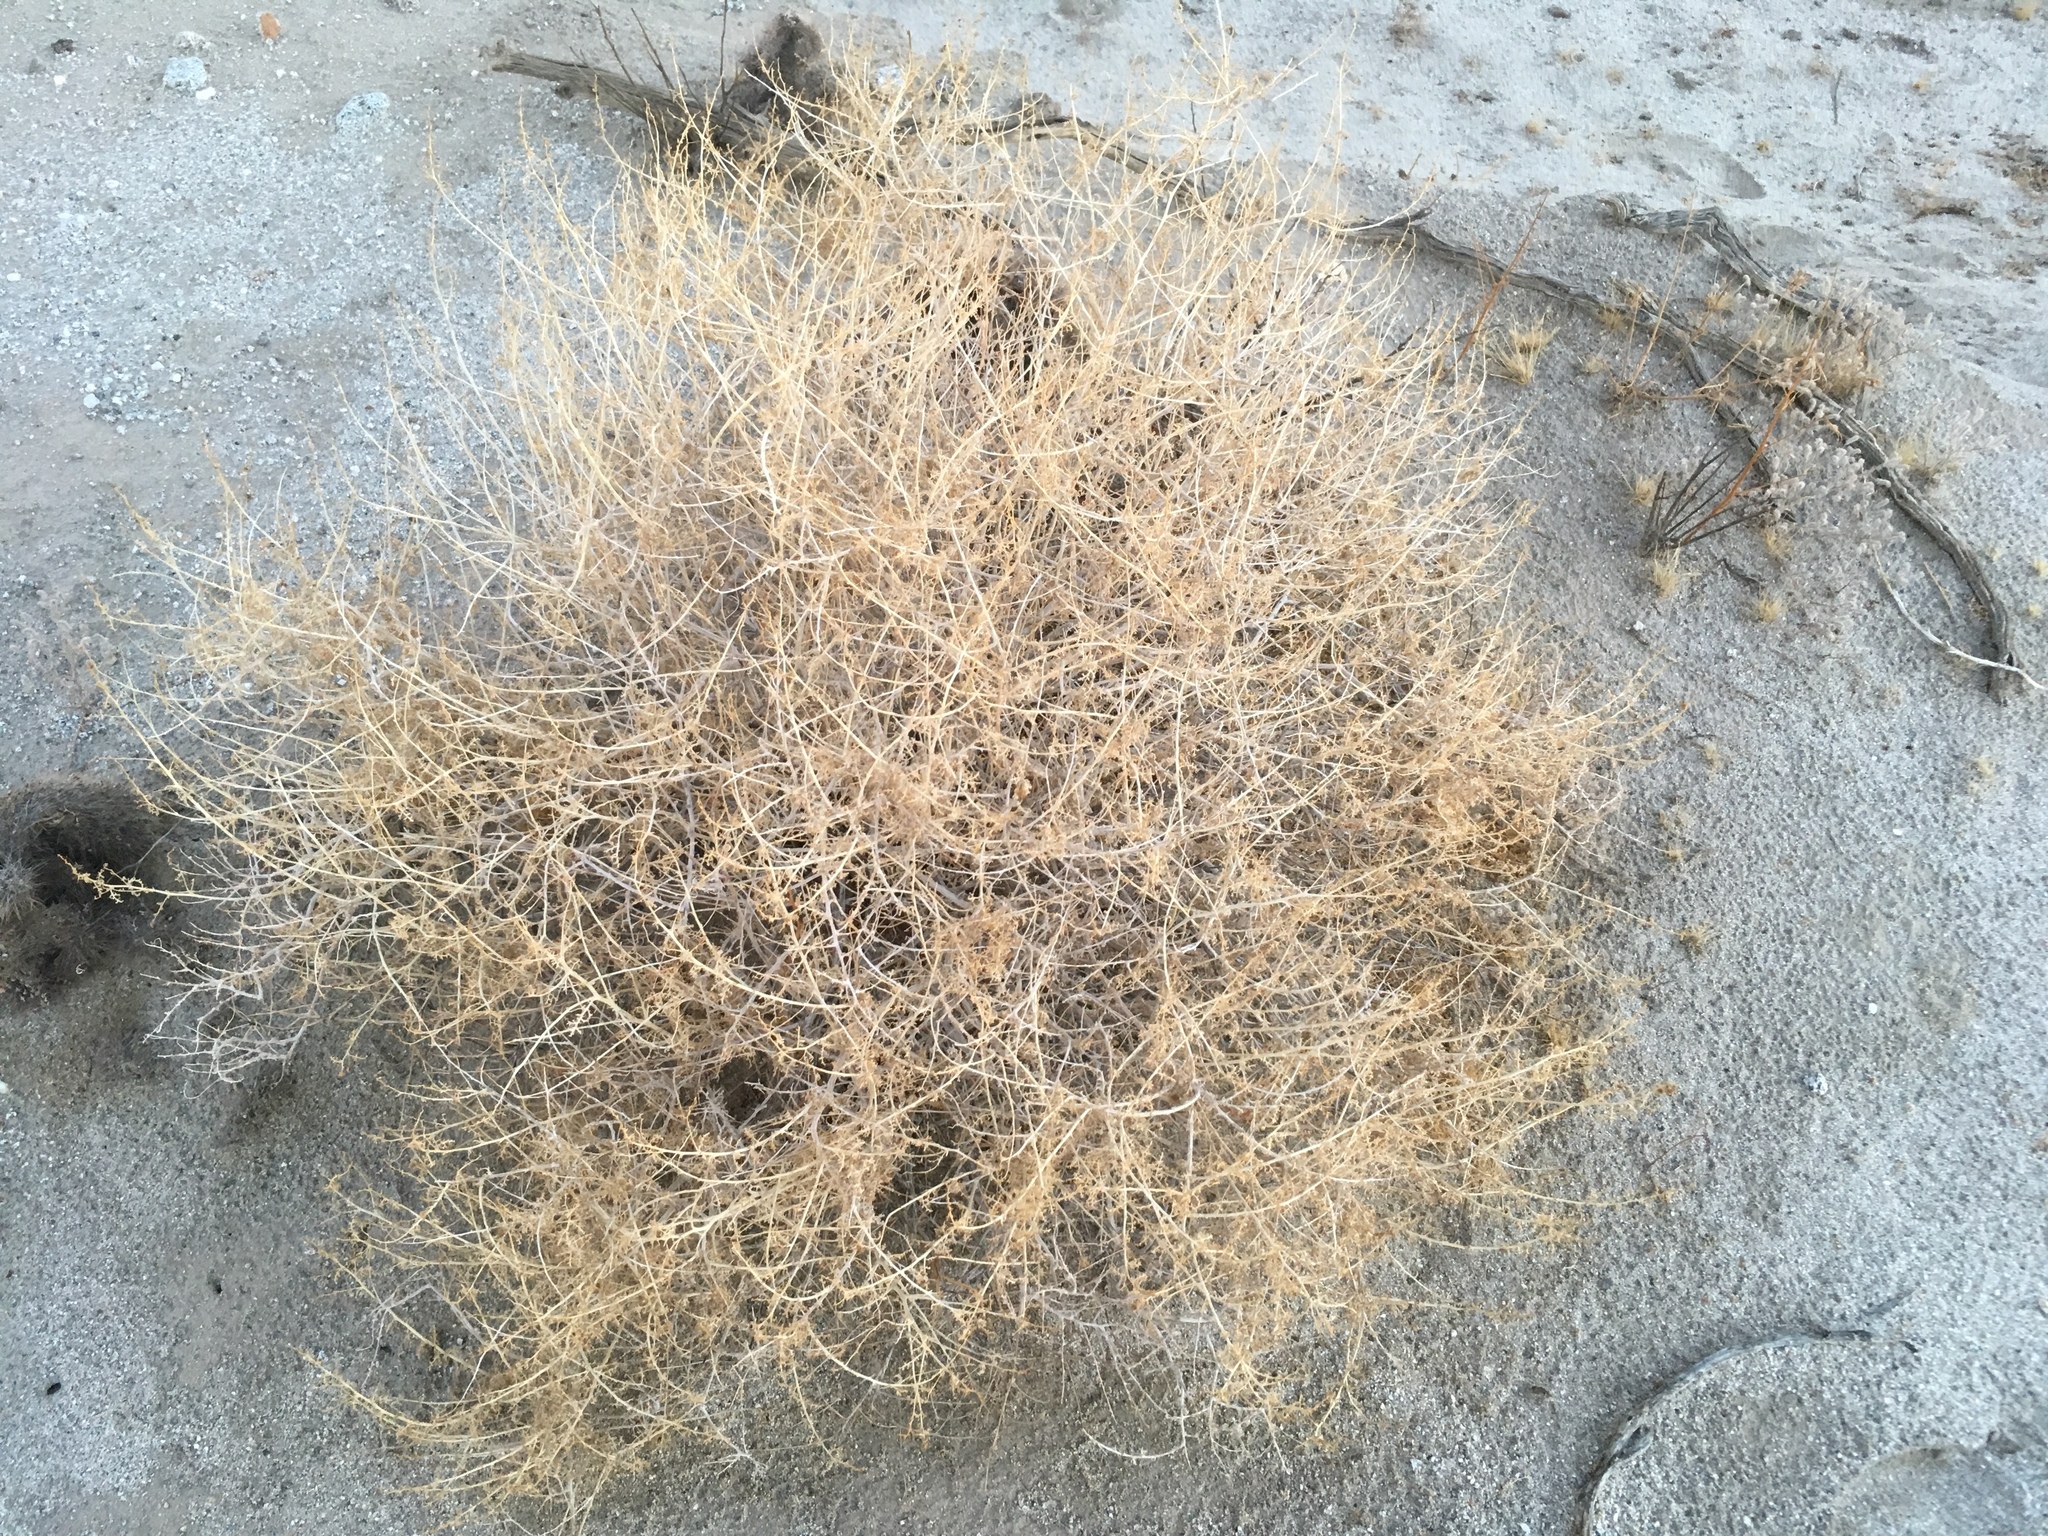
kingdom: Plantae
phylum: Tracheophyta
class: Magnoliopsida
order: Asterales
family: Asteraceae
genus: Ambrosia
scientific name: Ambrosia dumosa
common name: Bur-sage
